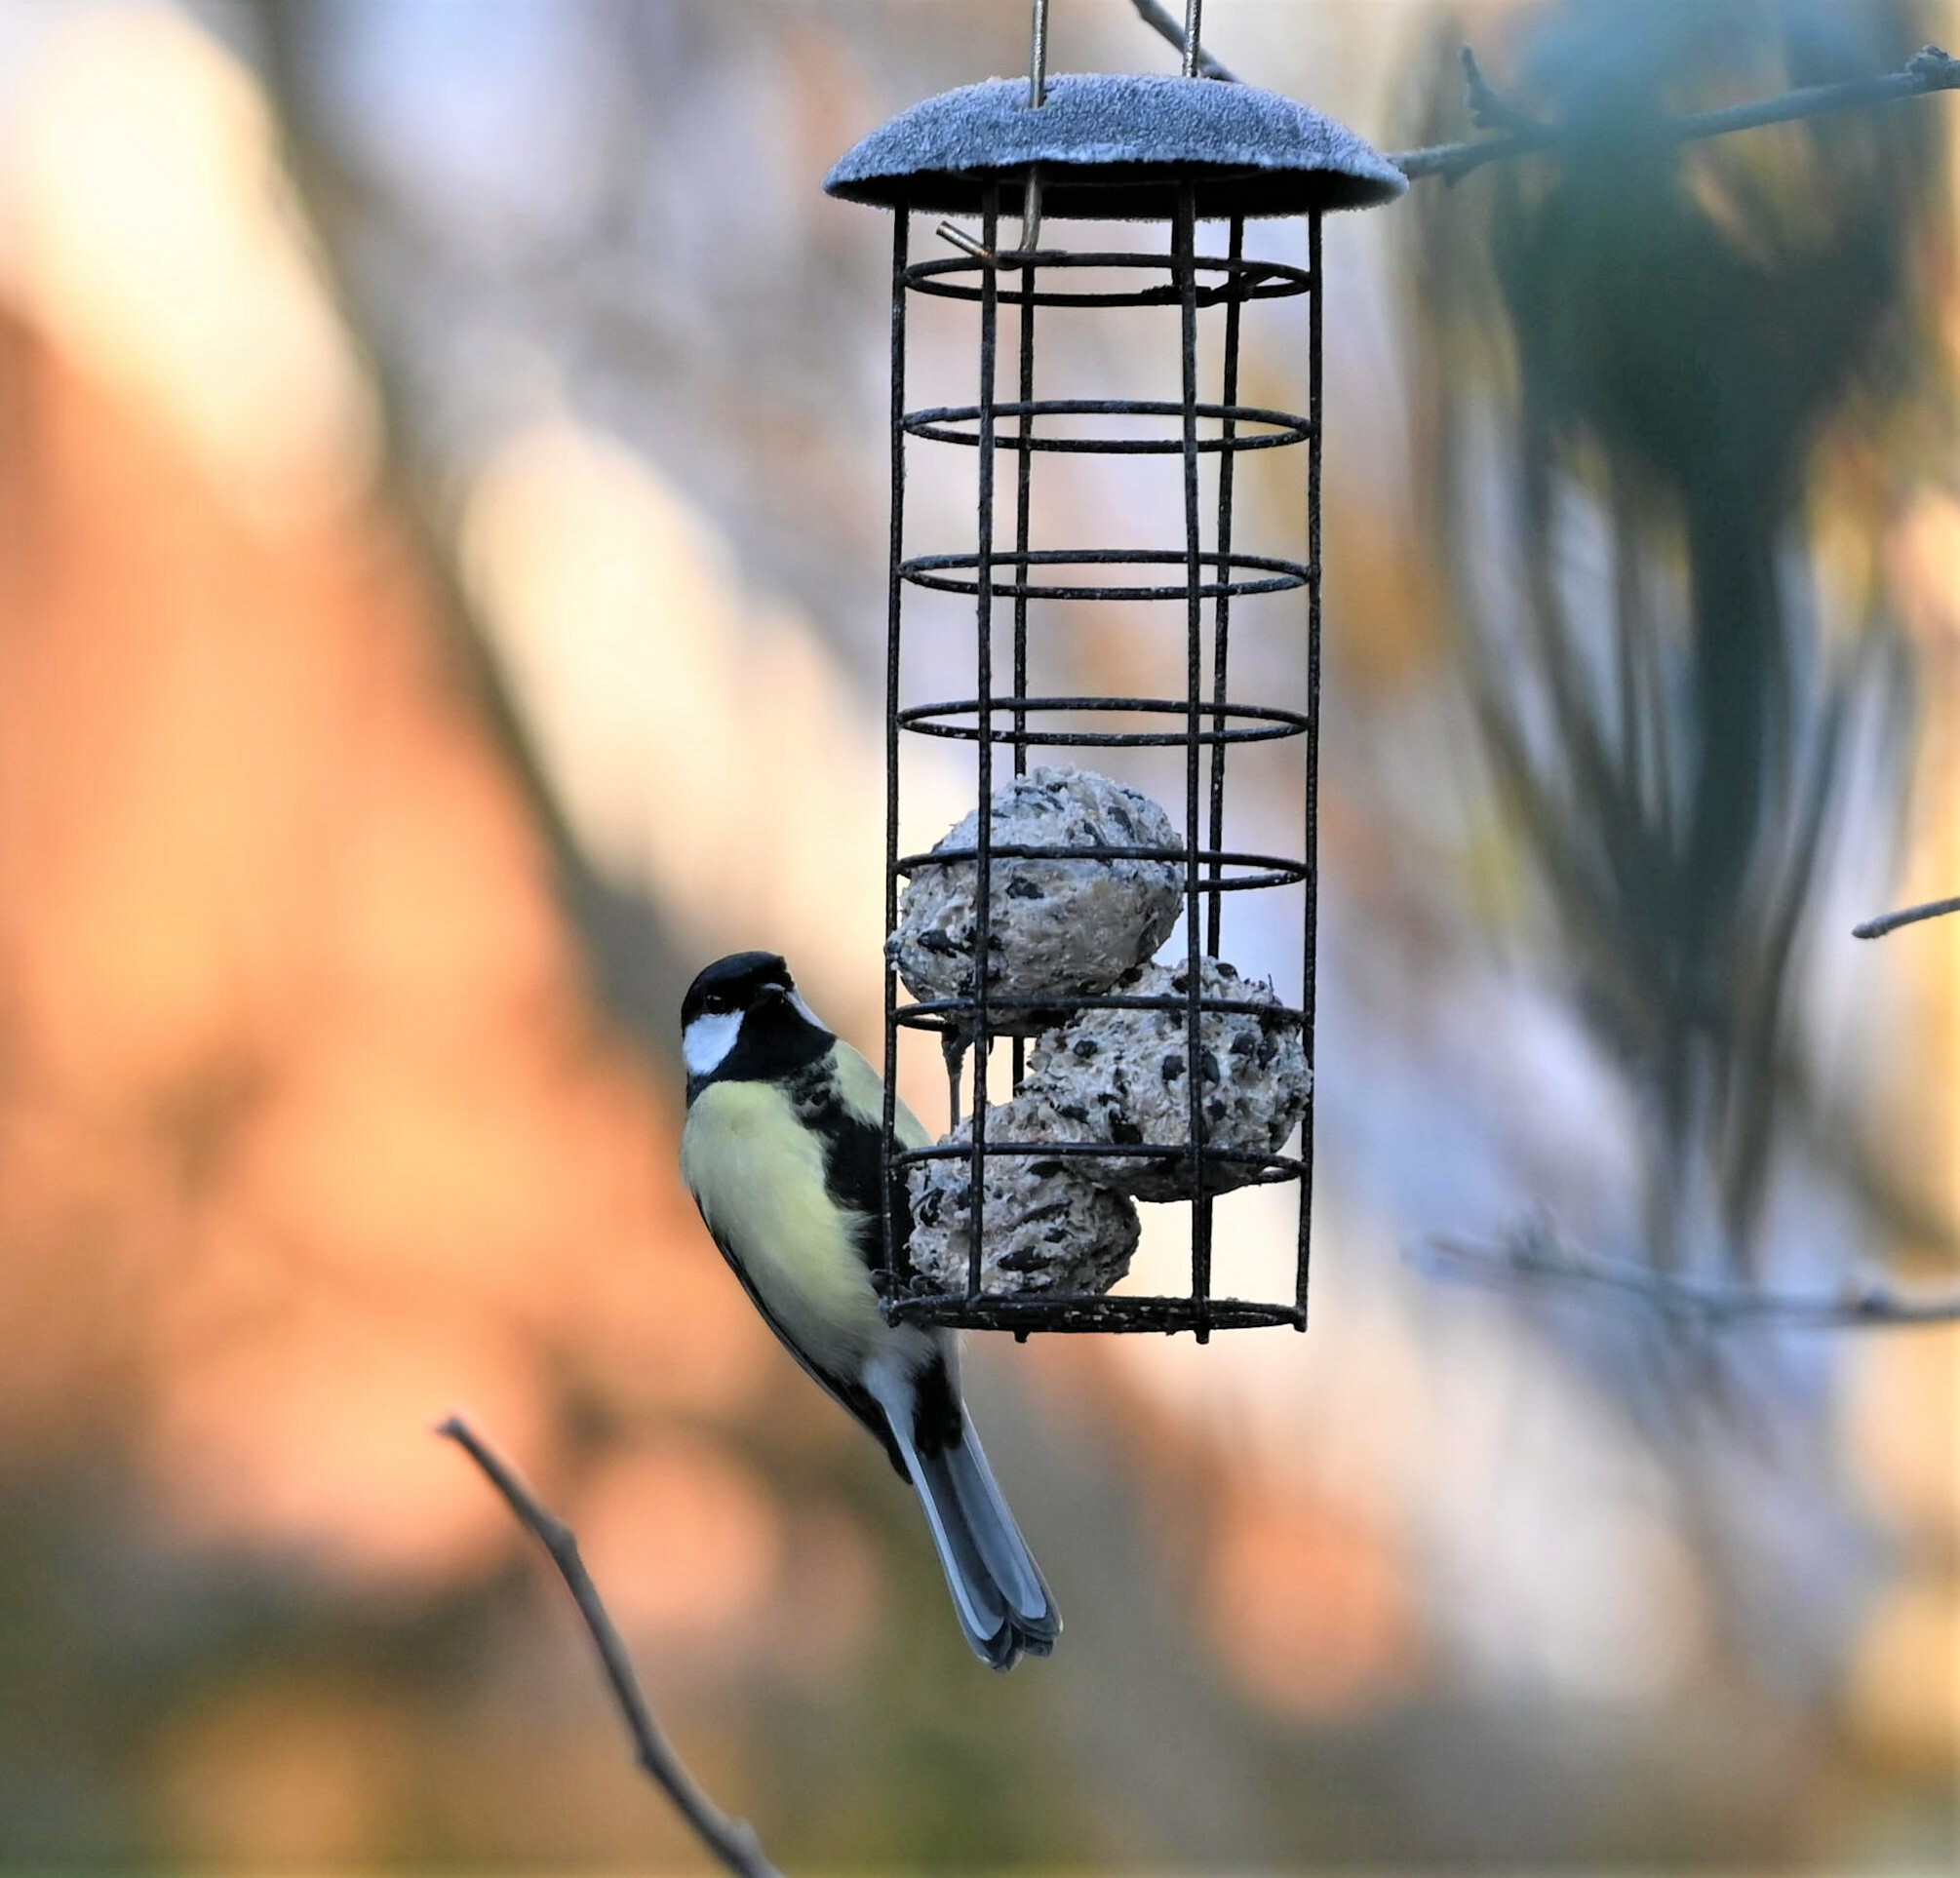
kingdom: Animalia
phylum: Chordata
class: Aves
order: Passeriformes
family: Paridae
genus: Parus
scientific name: Parus major
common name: Great tit
